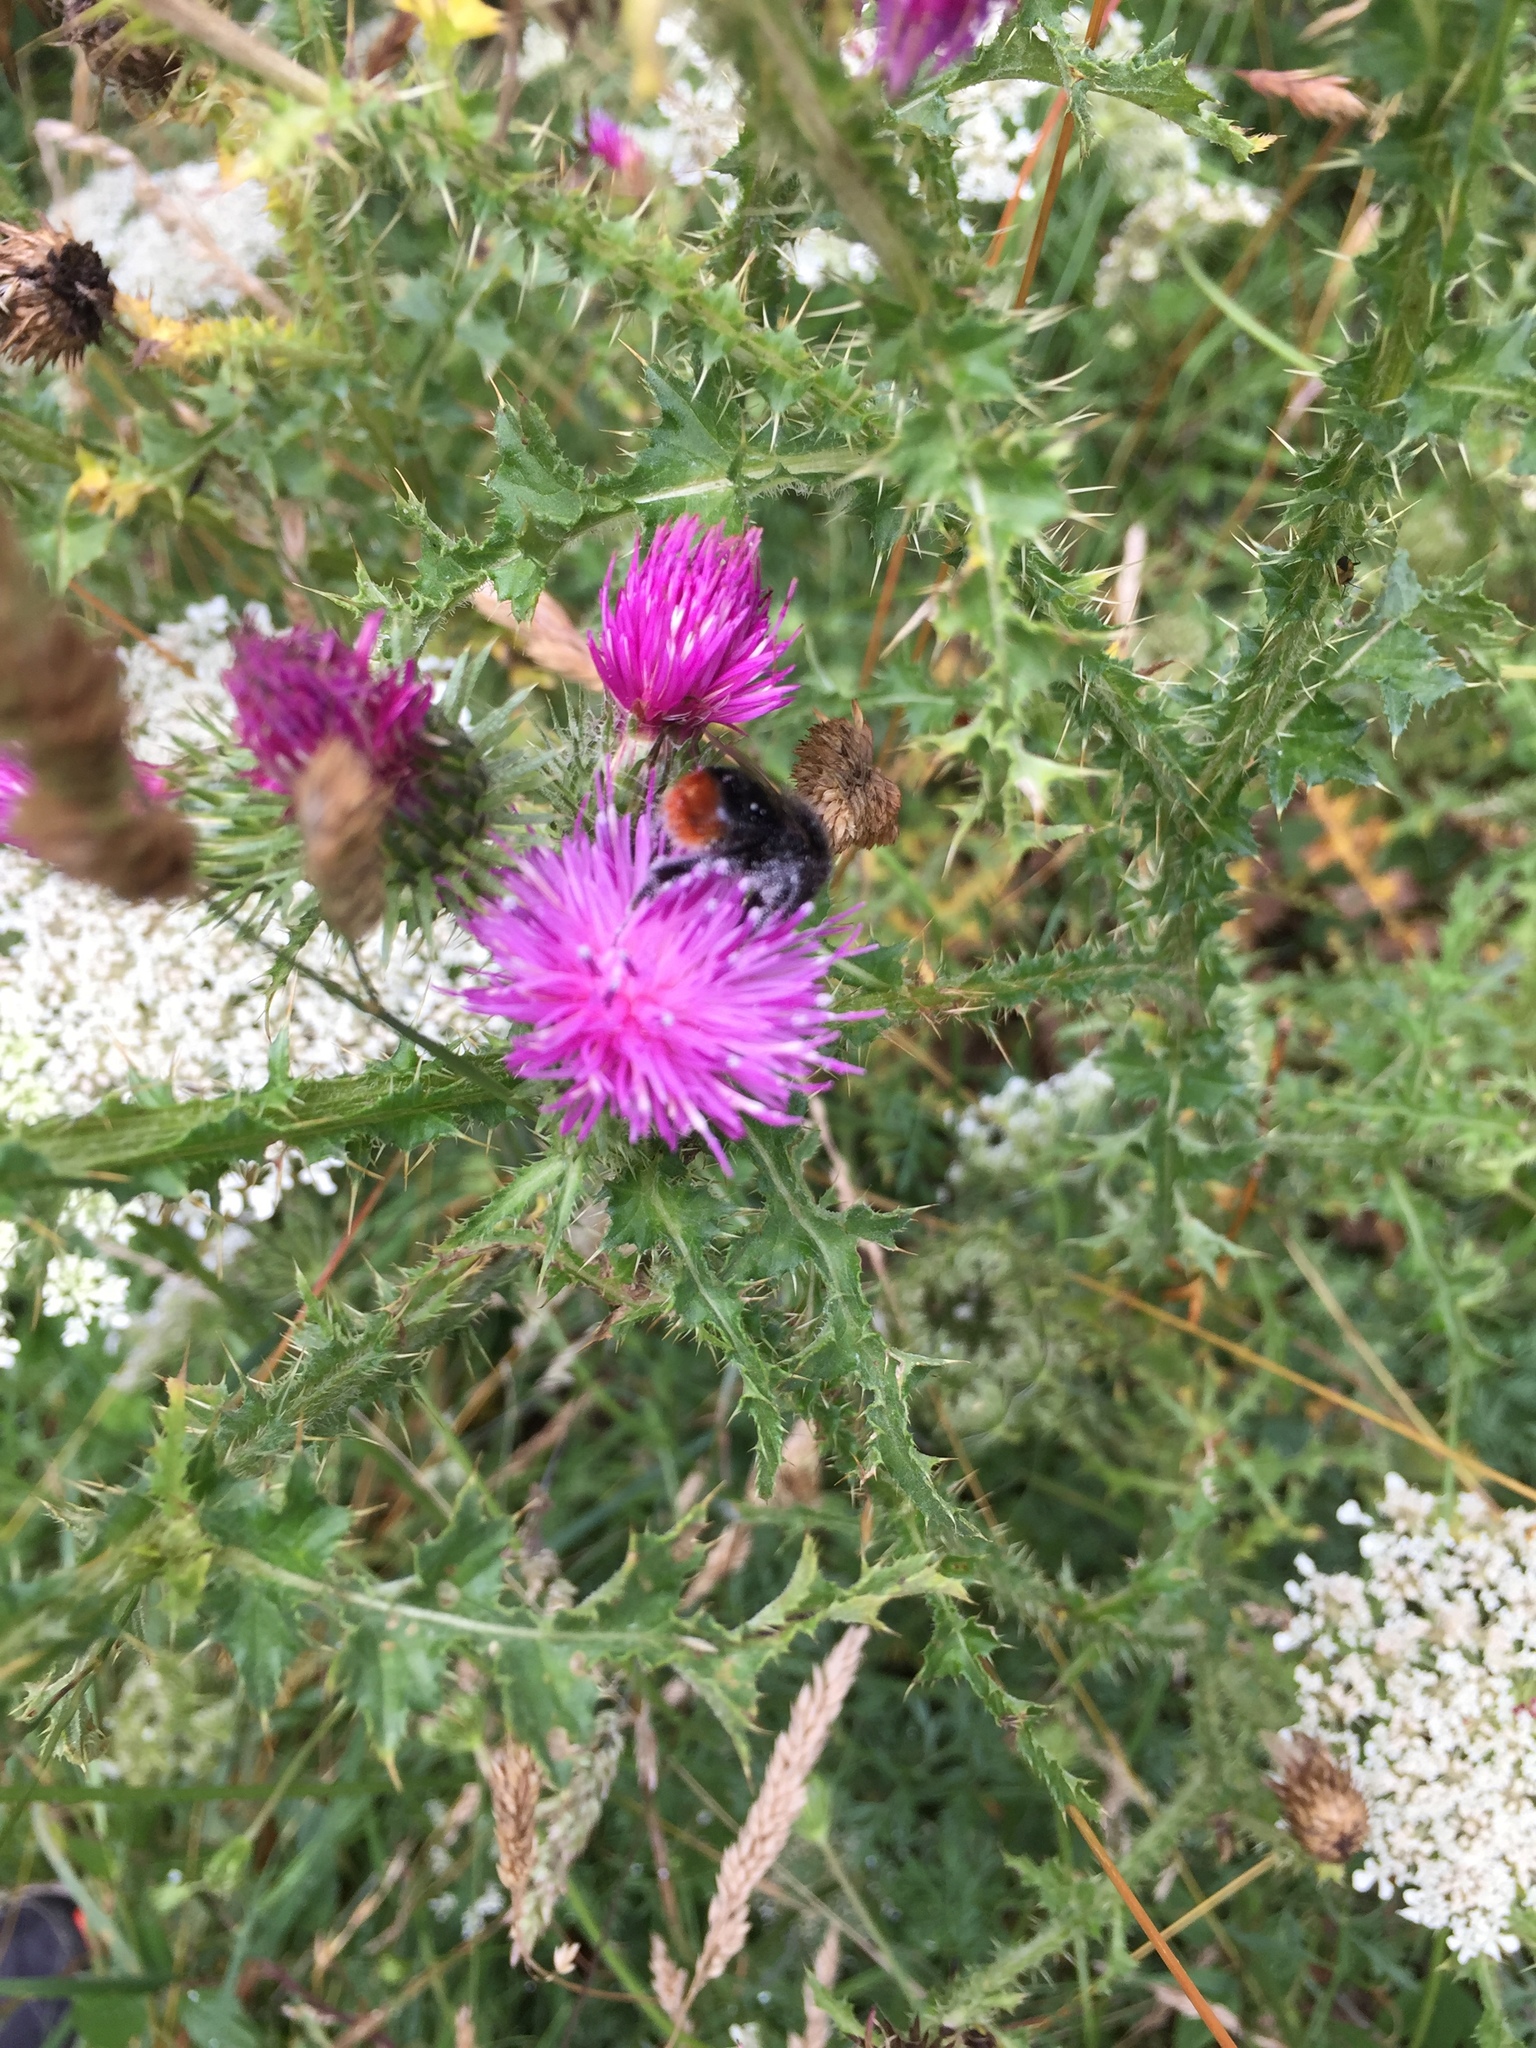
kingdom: Plantae
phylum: Tracheophyta
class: Magnoliopsida
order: Asterales
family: Asteraceae
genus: Carduus
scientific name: Carduus crispus
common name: Welted thistle
